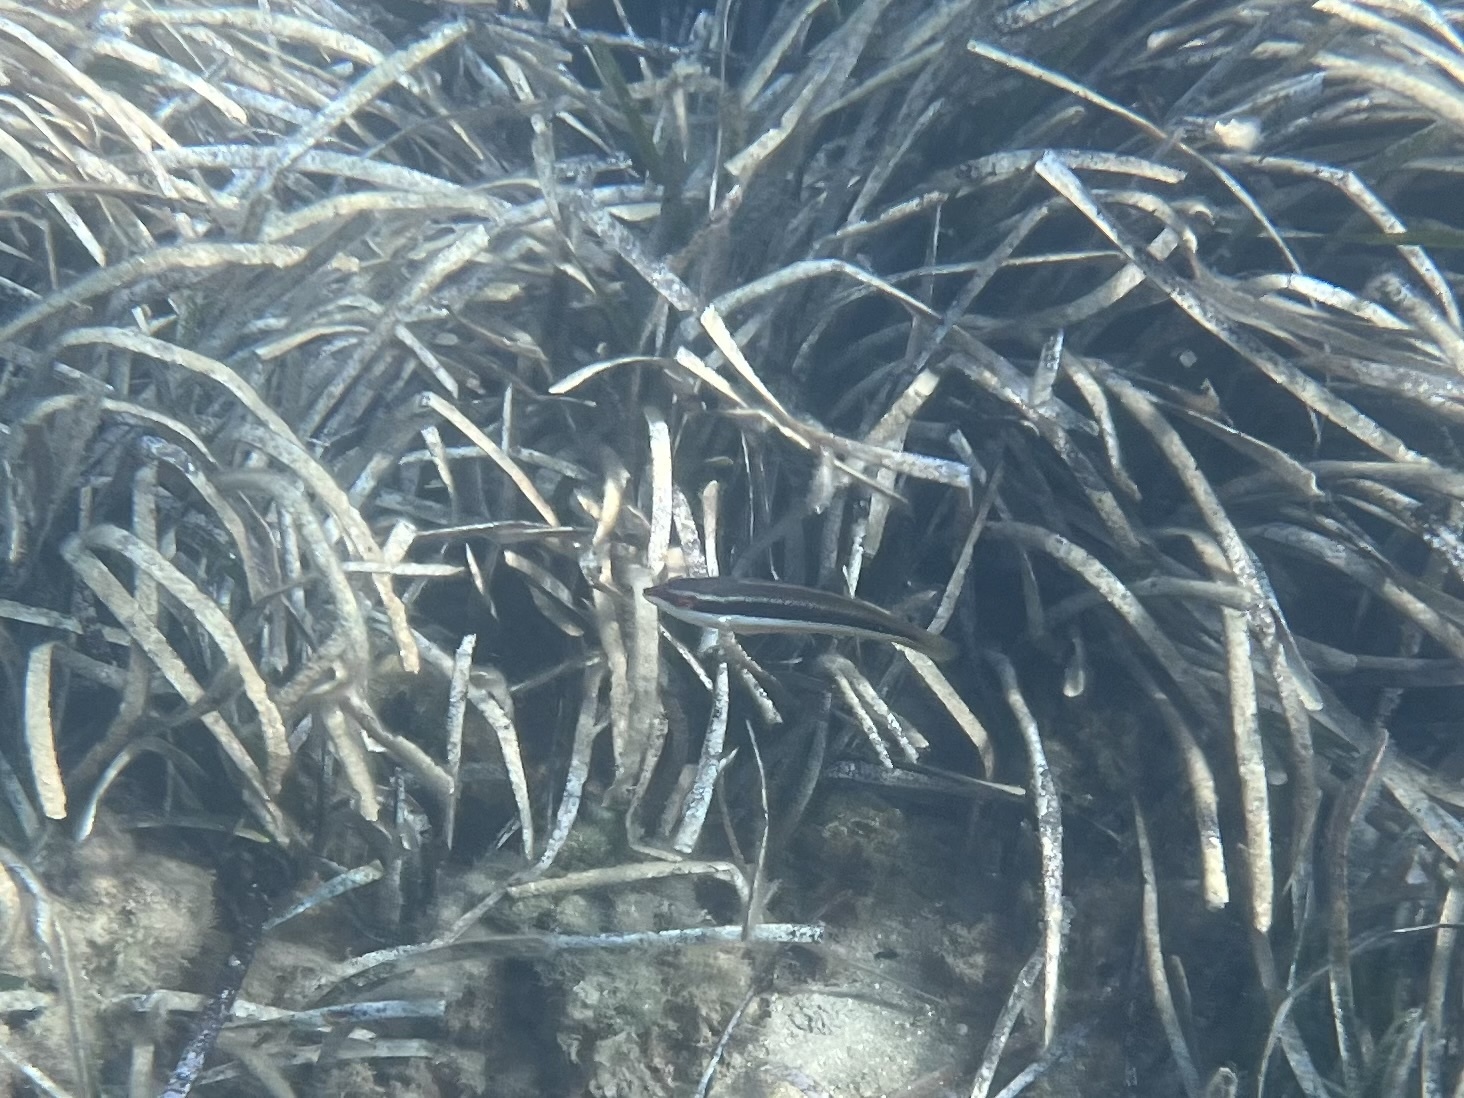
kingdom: Animalia
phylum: Chordata
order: Perciformes
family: Labridae
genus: Coris
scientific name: Coris julis
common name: Rainbow wrasse
